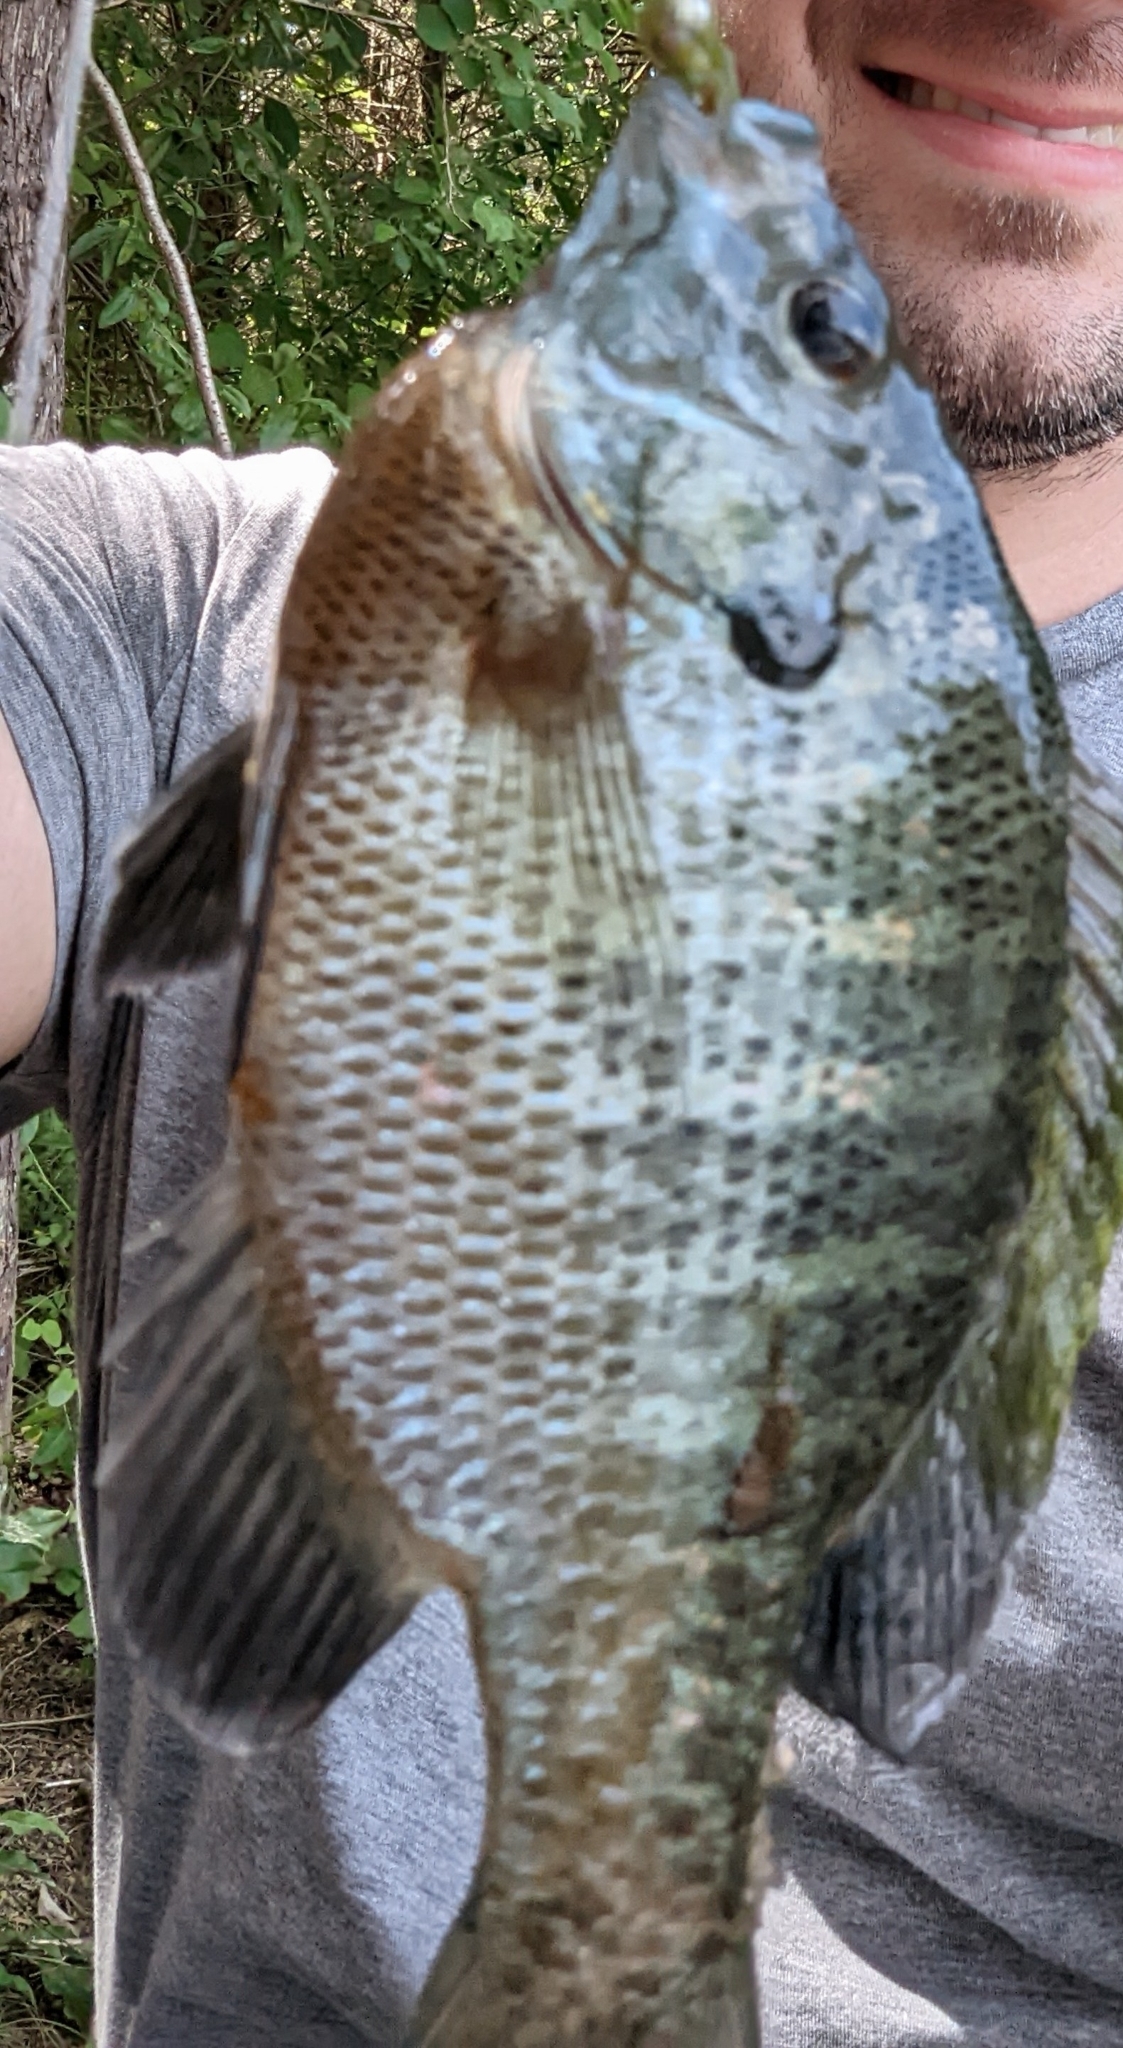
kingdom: Animalia
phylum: Chordata
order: Perciformes
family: Centrarchidae
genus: Lepomis
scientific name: Lepomis macrochirus
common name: Bluegill
